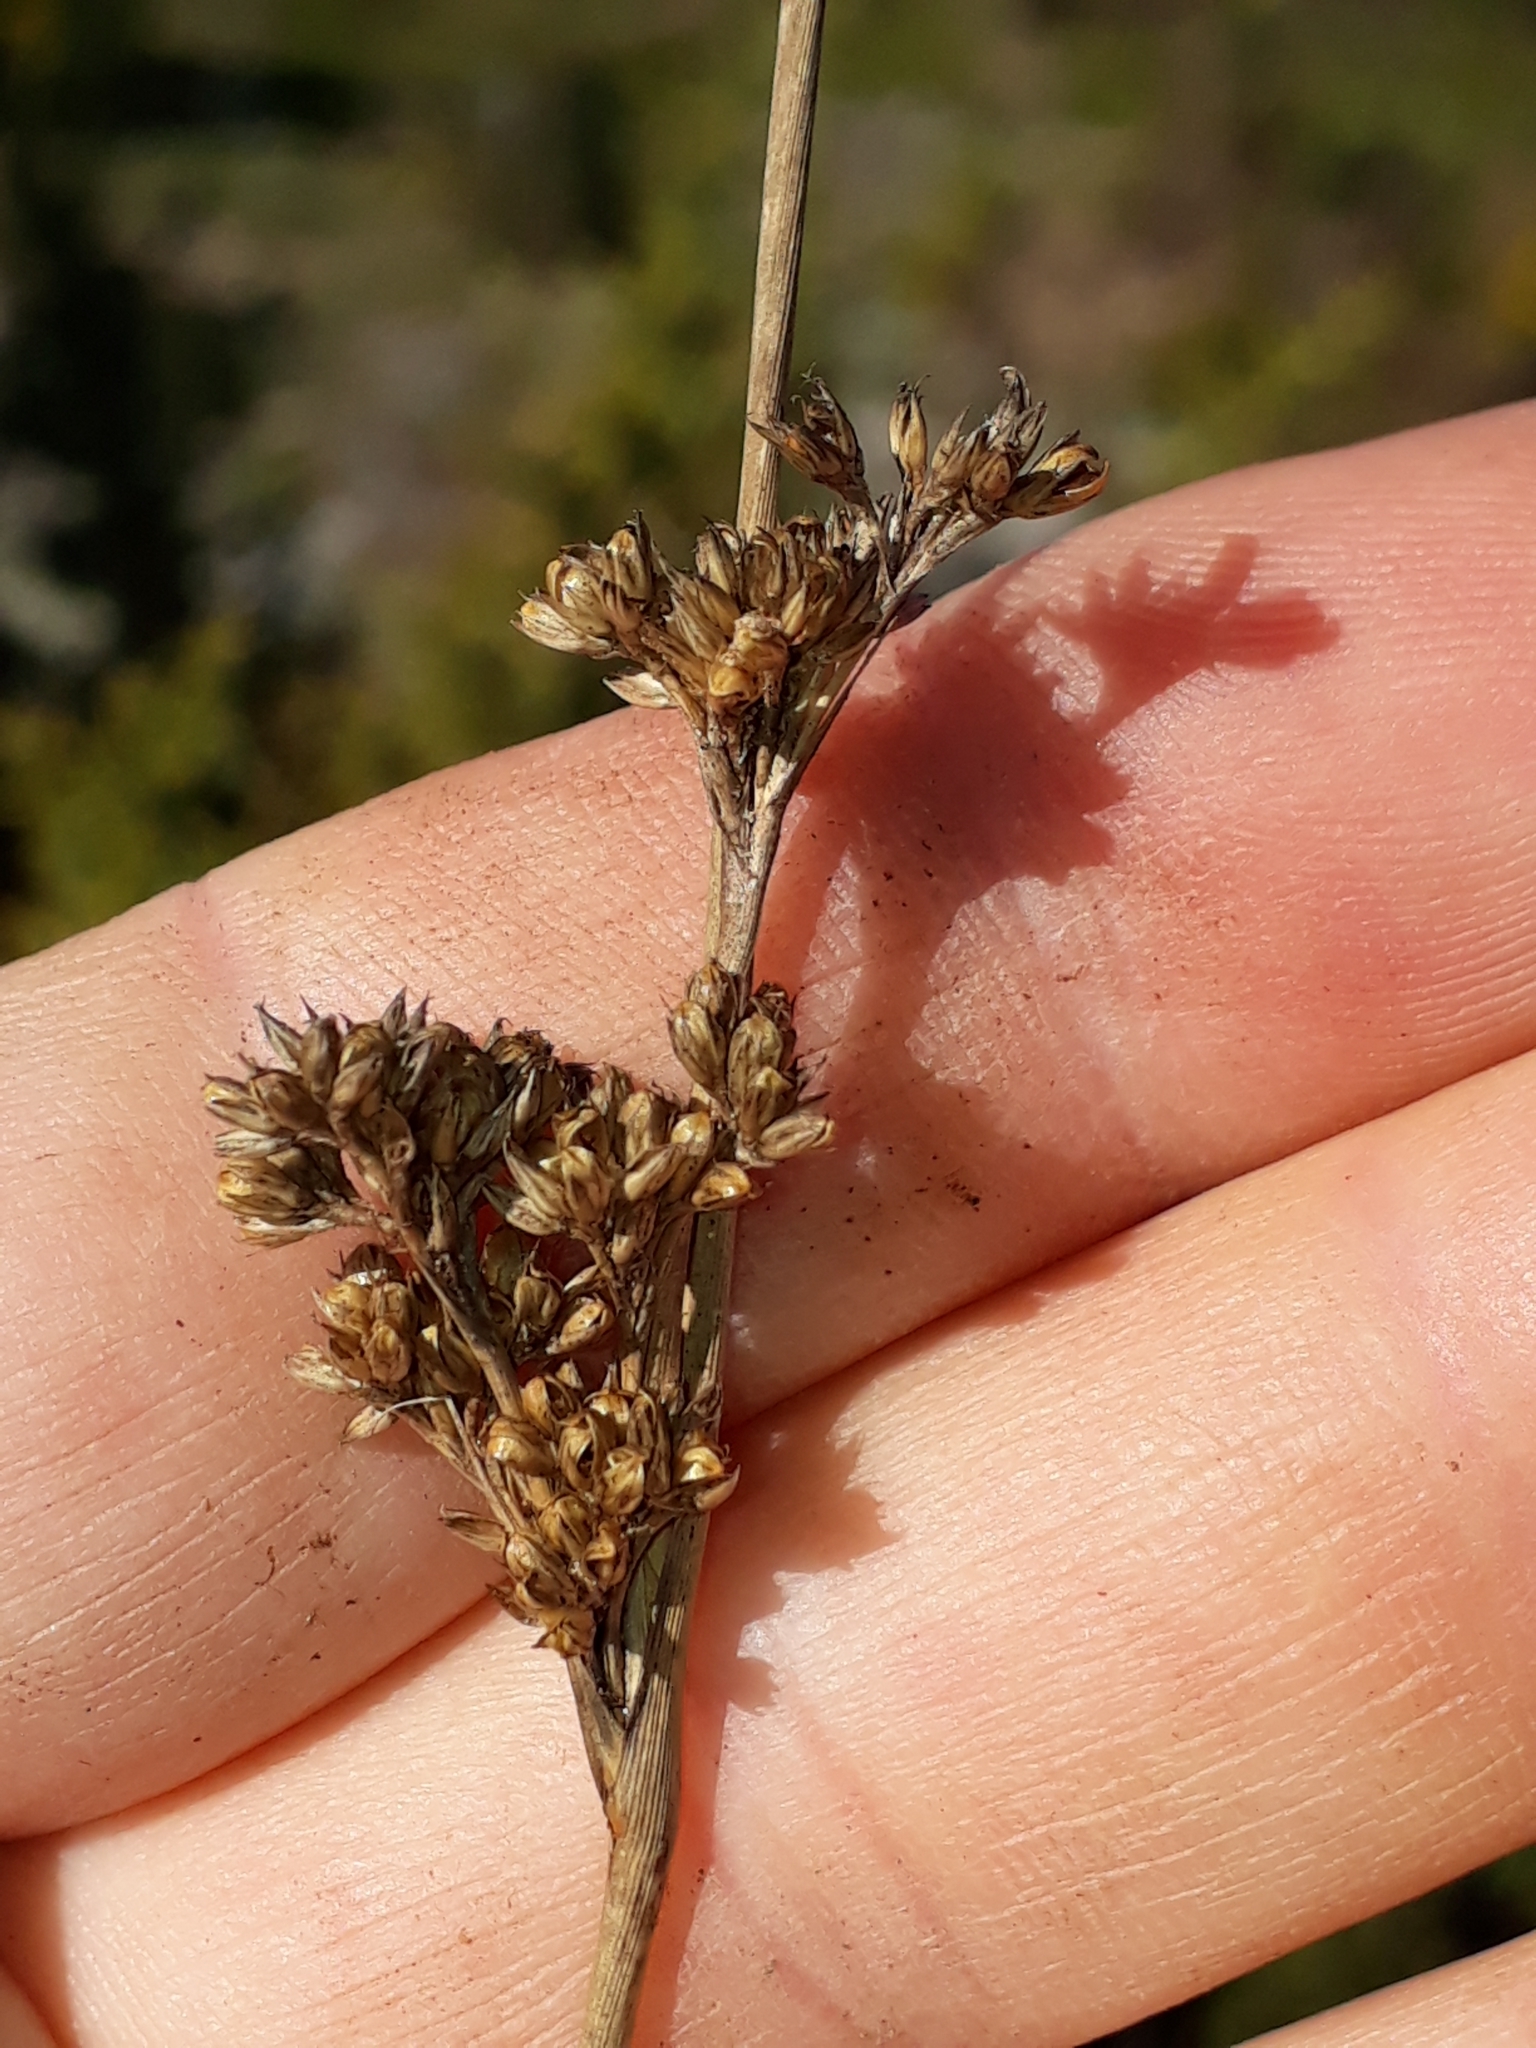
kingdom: Plantae
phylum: Tracheophyta
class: Liliopsida
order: Poales
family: Juncaceae
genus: Juncus
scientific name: Juncus australis
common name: Austral rush
